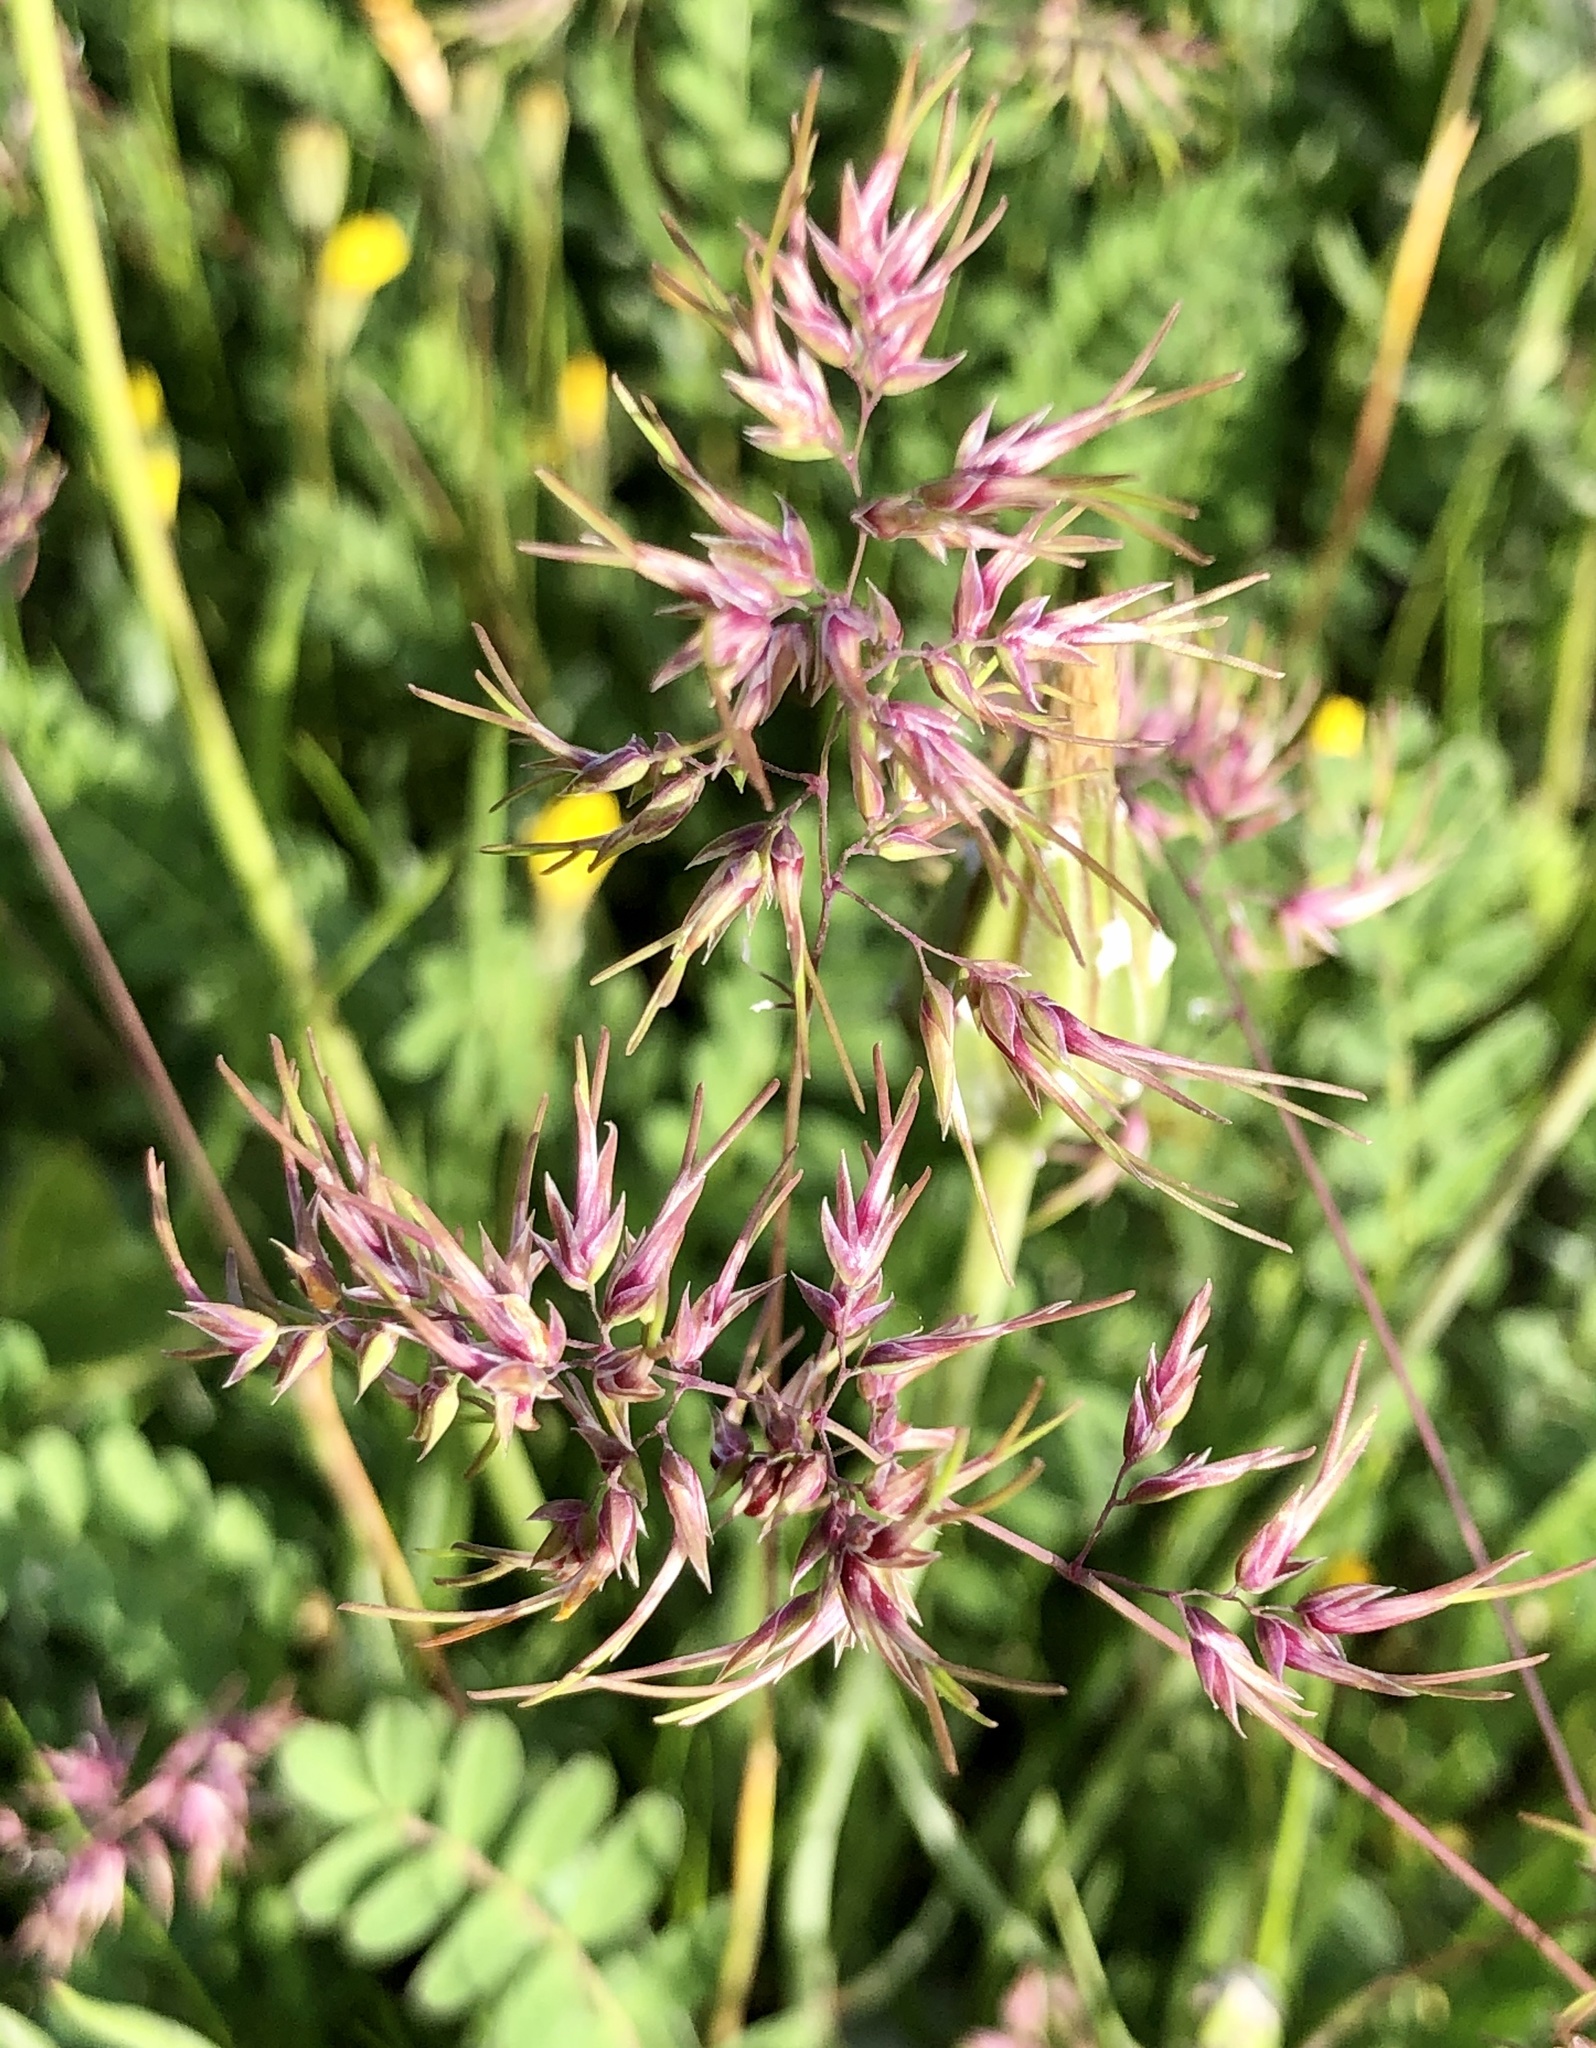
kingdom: Plantae
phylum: Tracheophyta
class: Liliopsida
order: Poales
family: Poaceae
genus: Poa
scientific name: Poa bulbosa
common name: Bulbous bluegrass
